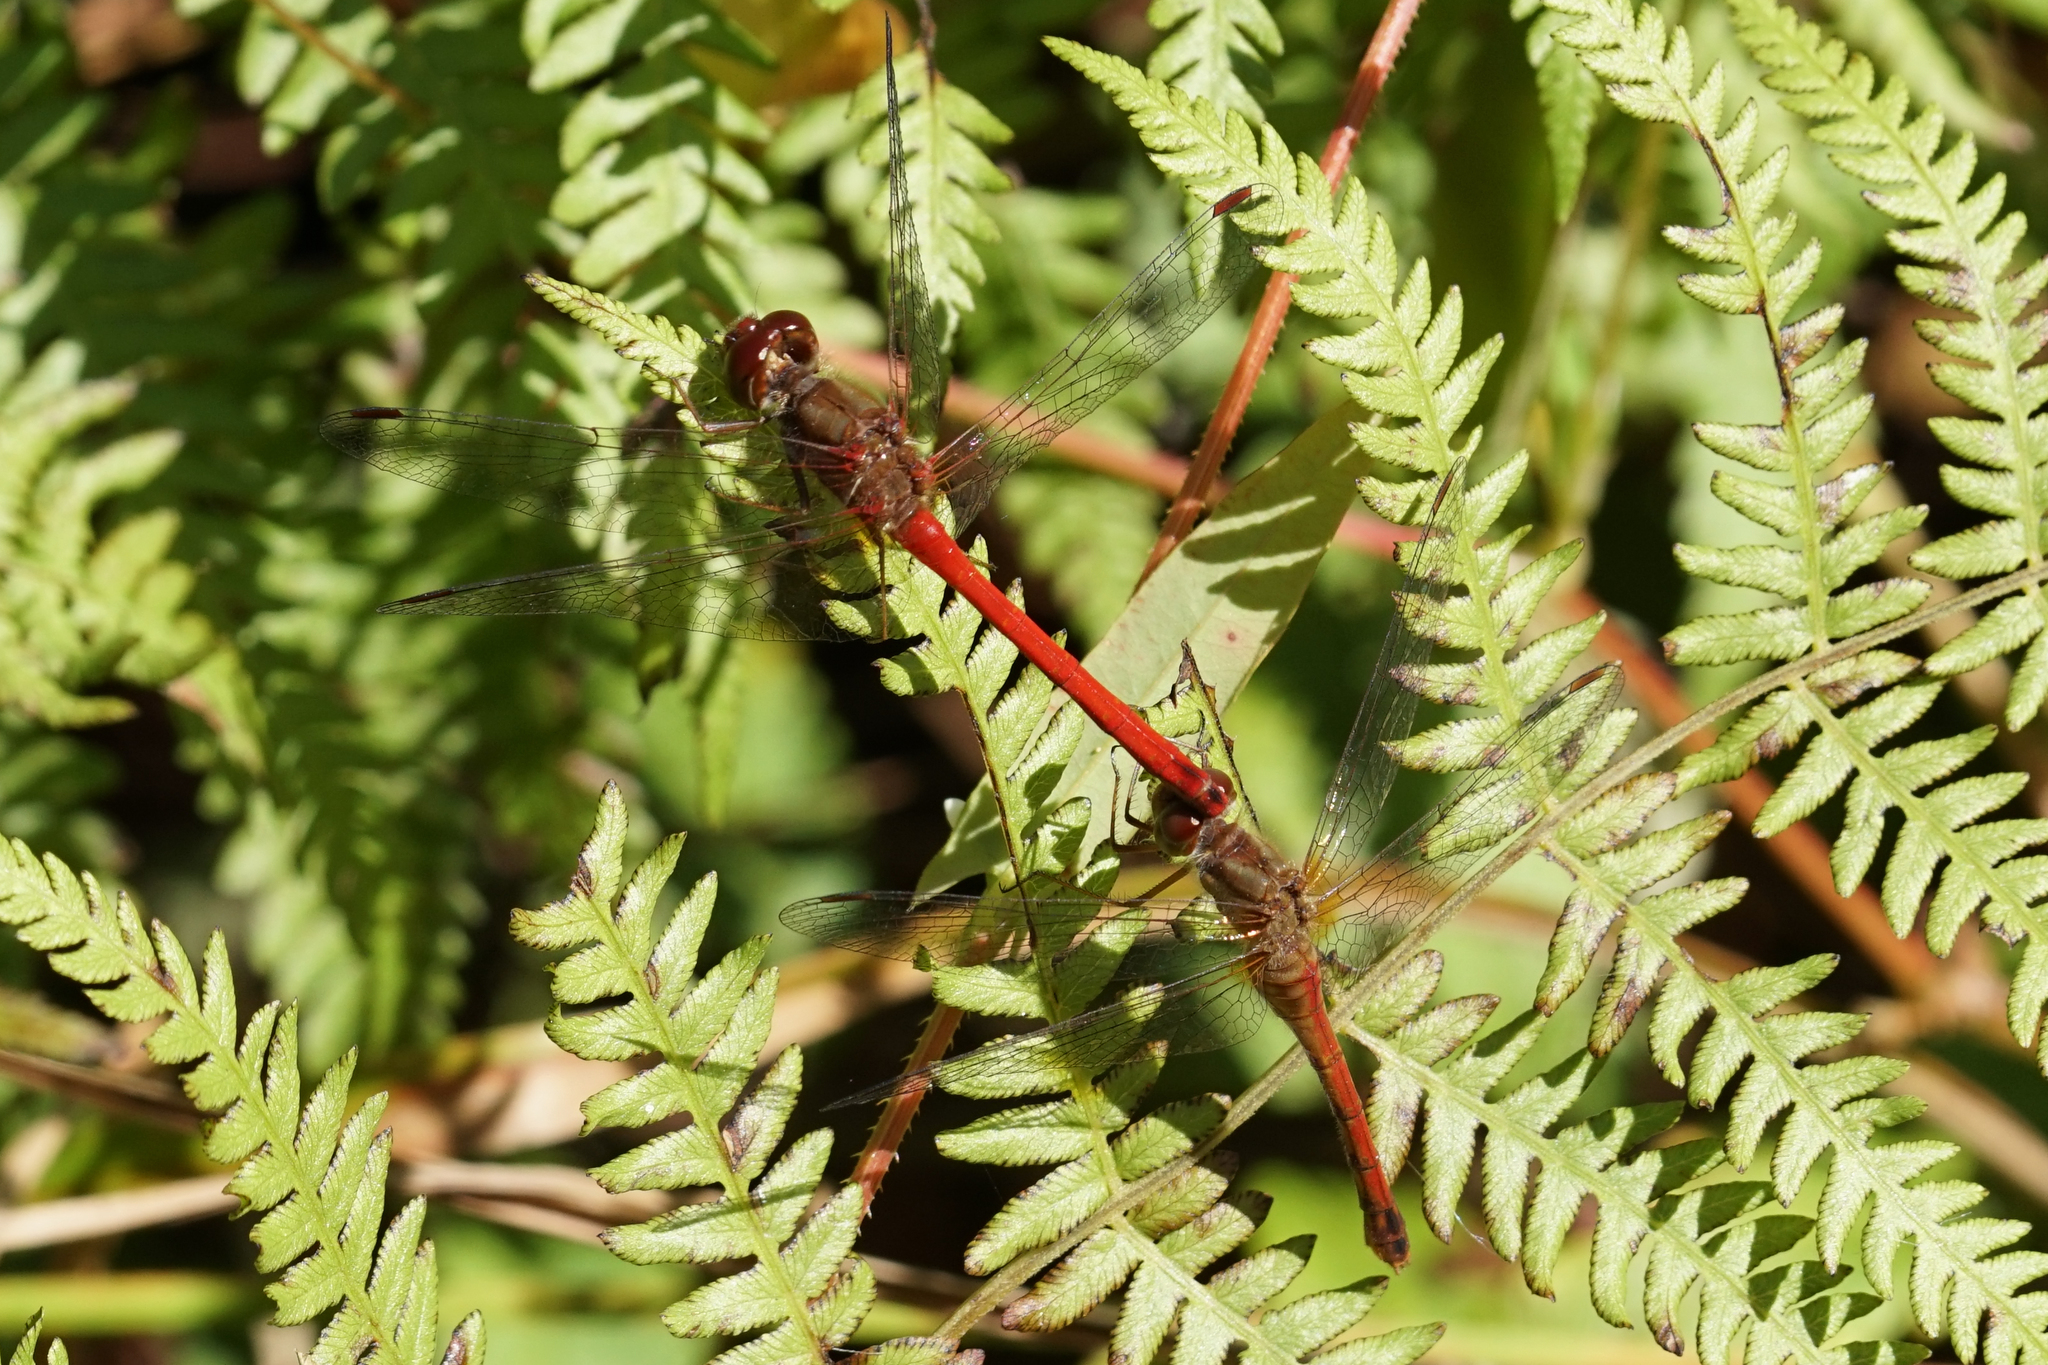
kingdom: Animalia
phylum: Arthropoda
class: Insecta
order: Odonata
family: Libellulidae
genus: Sympetrum
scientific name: Sympetrum vicinum
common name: Autumn meadowhawk
